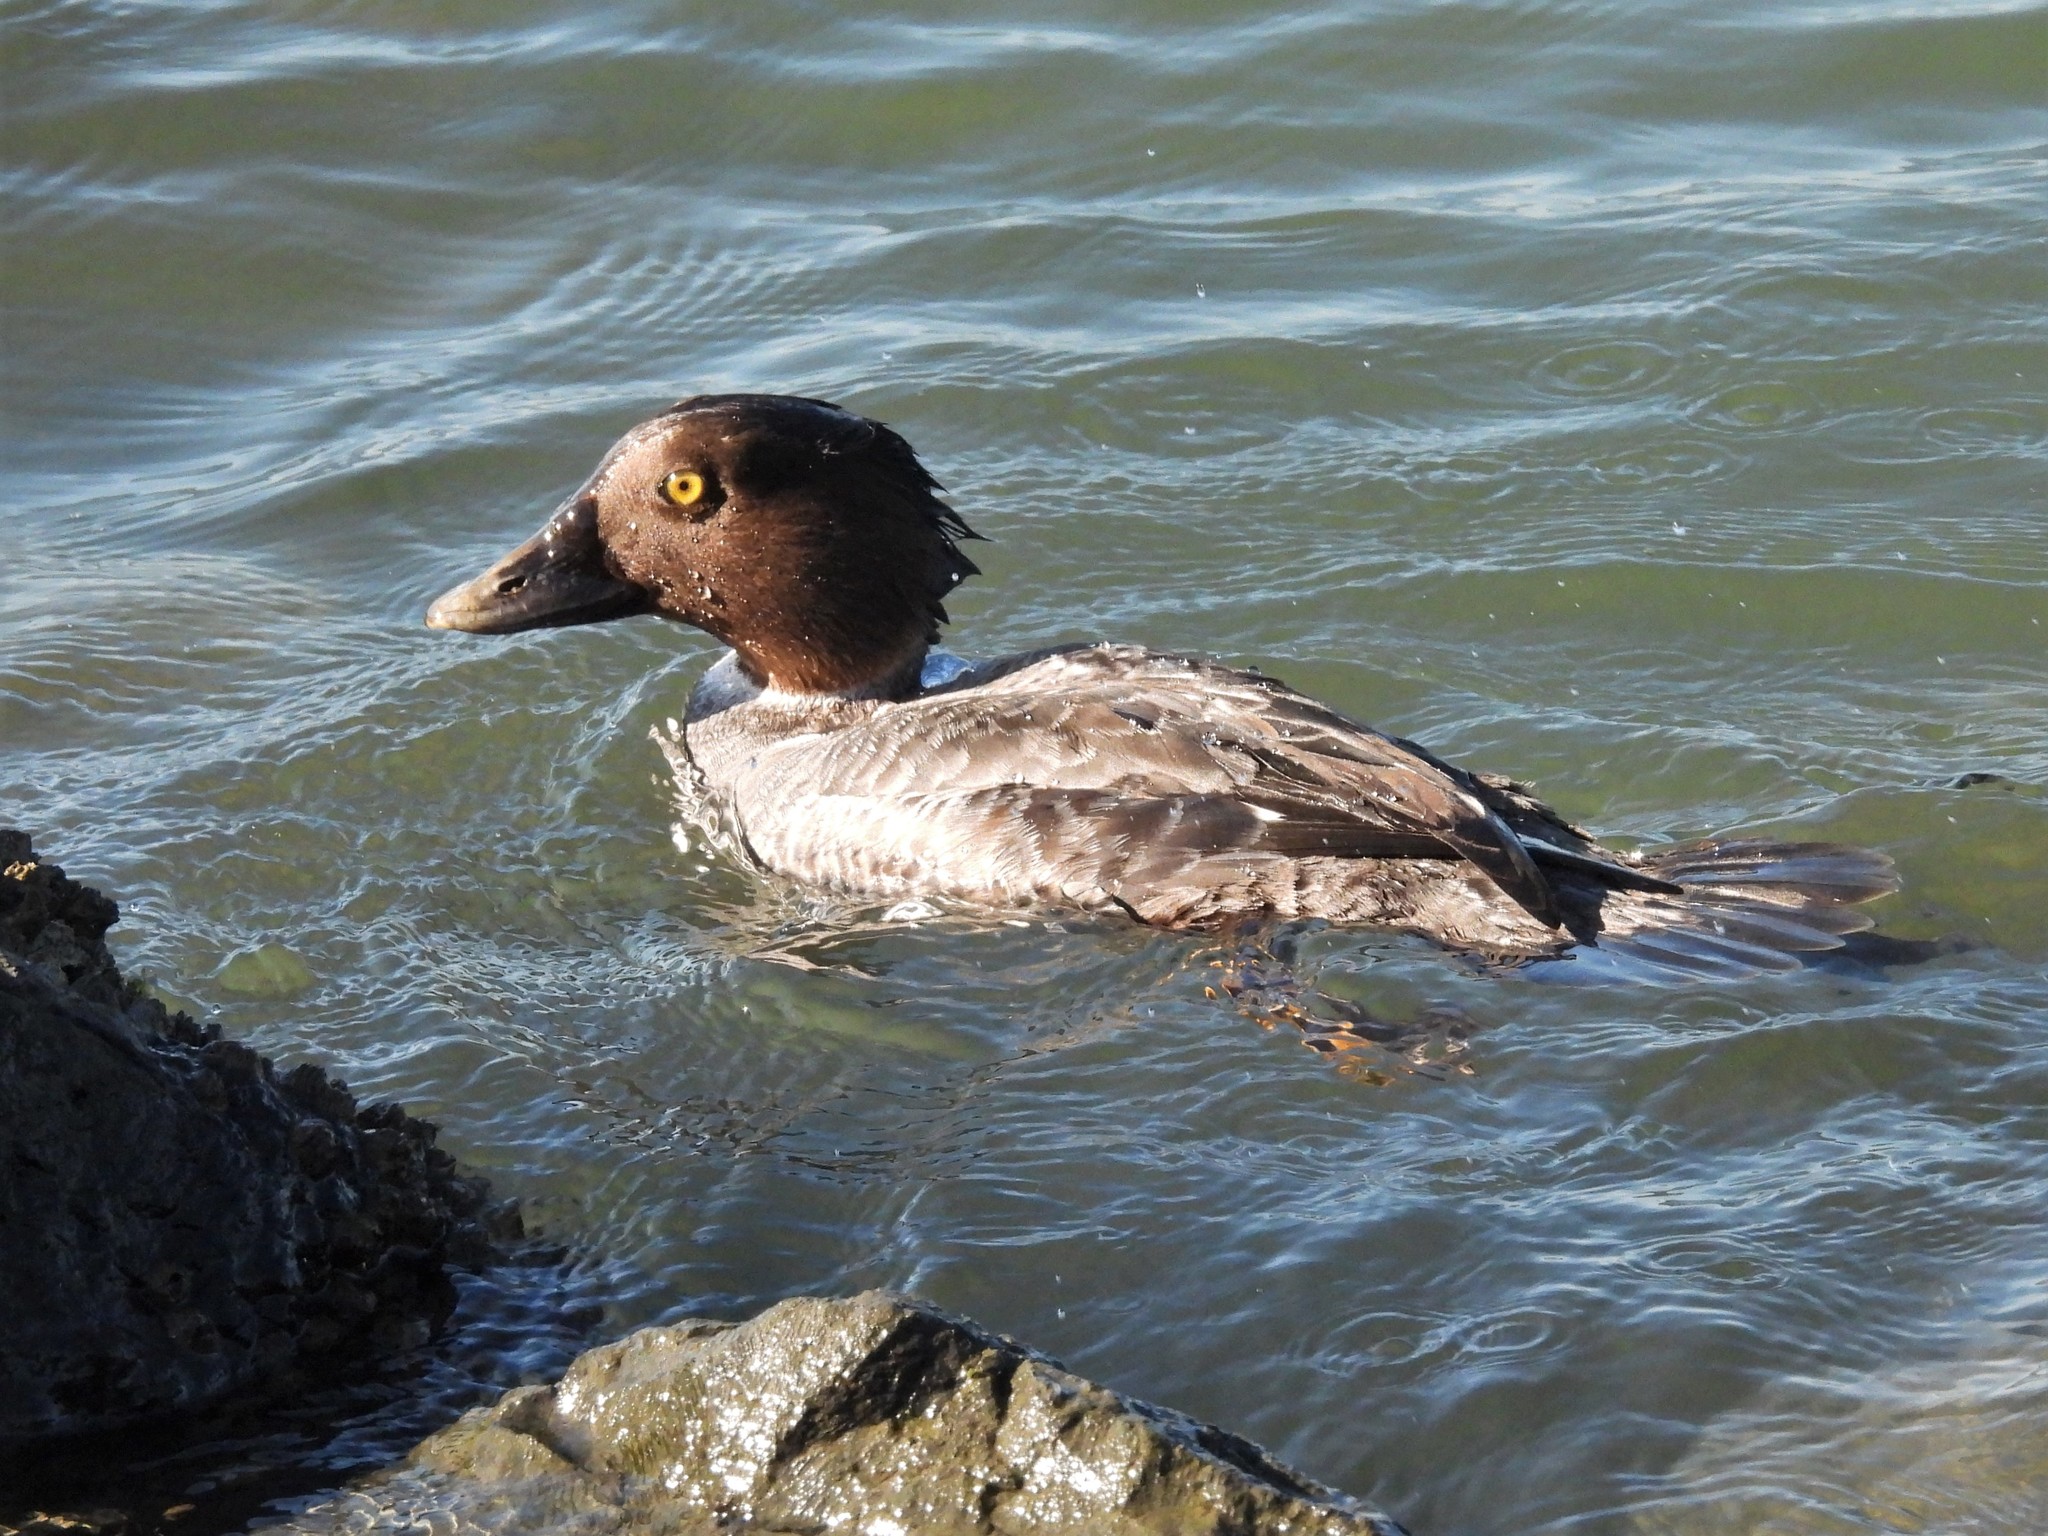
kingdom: Animalia
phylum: Chordata
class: Aves
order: Anseriformes
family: Anatidae
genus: Bucephala
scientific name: Bucephala clangula
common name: Common goldeneye
